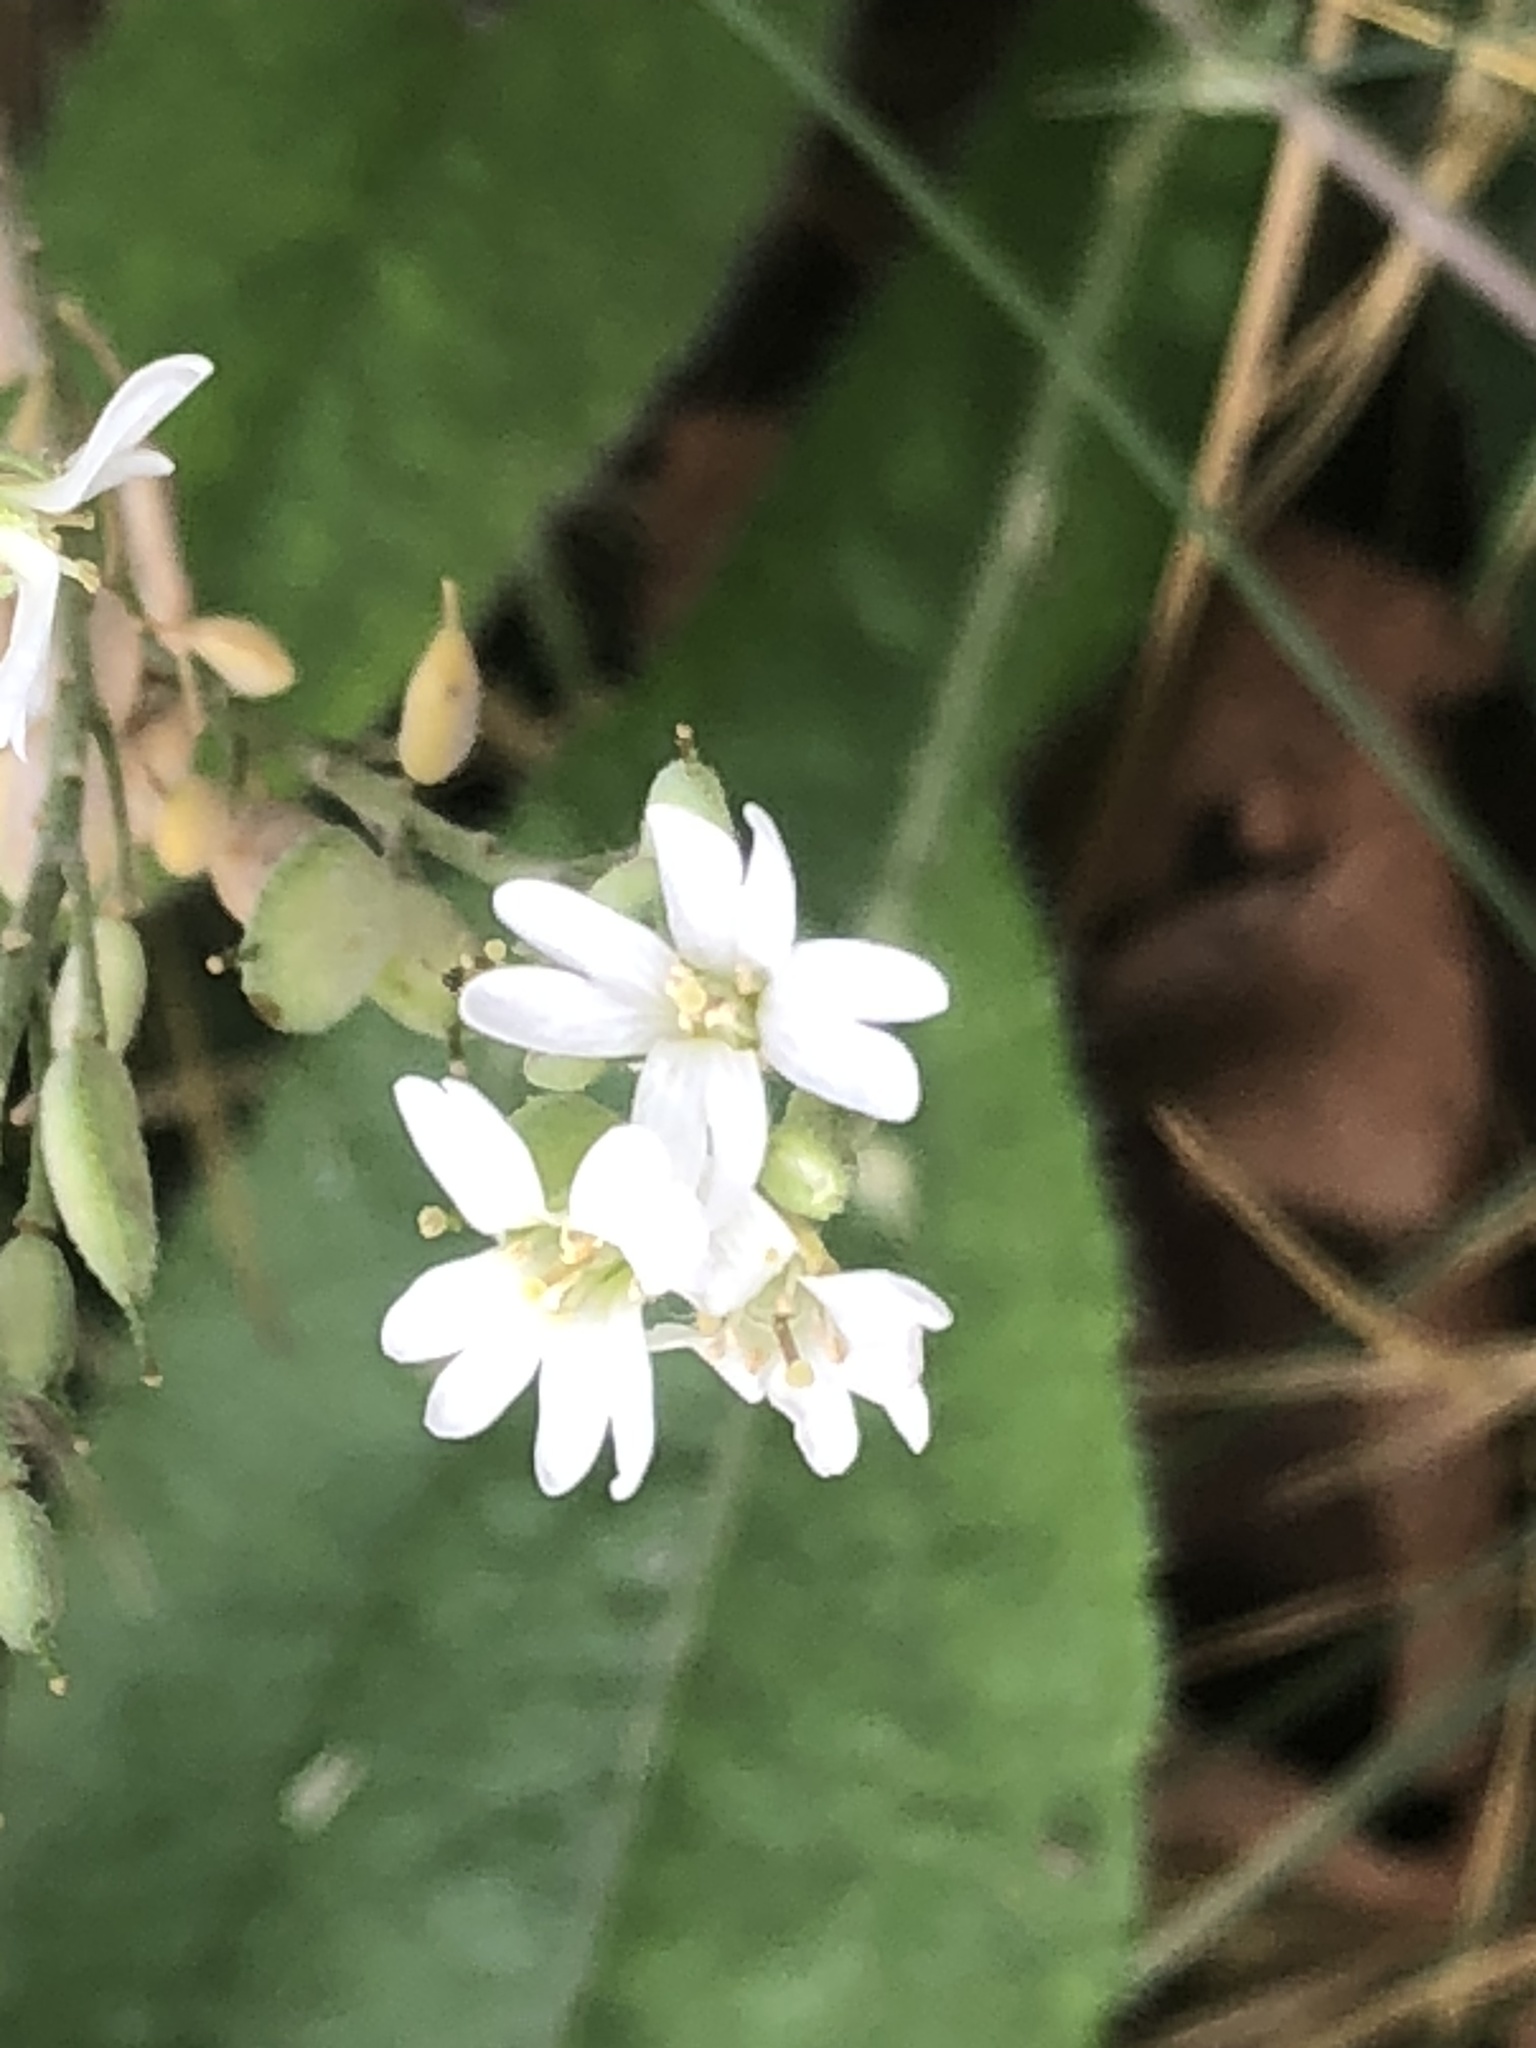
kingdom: Plantae
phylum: Tracheophyta
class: Magnoliopsida
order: Brassicales
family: Brassicaceae
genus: Berteroa
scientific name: Berteroa incana
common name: Hoary alison
